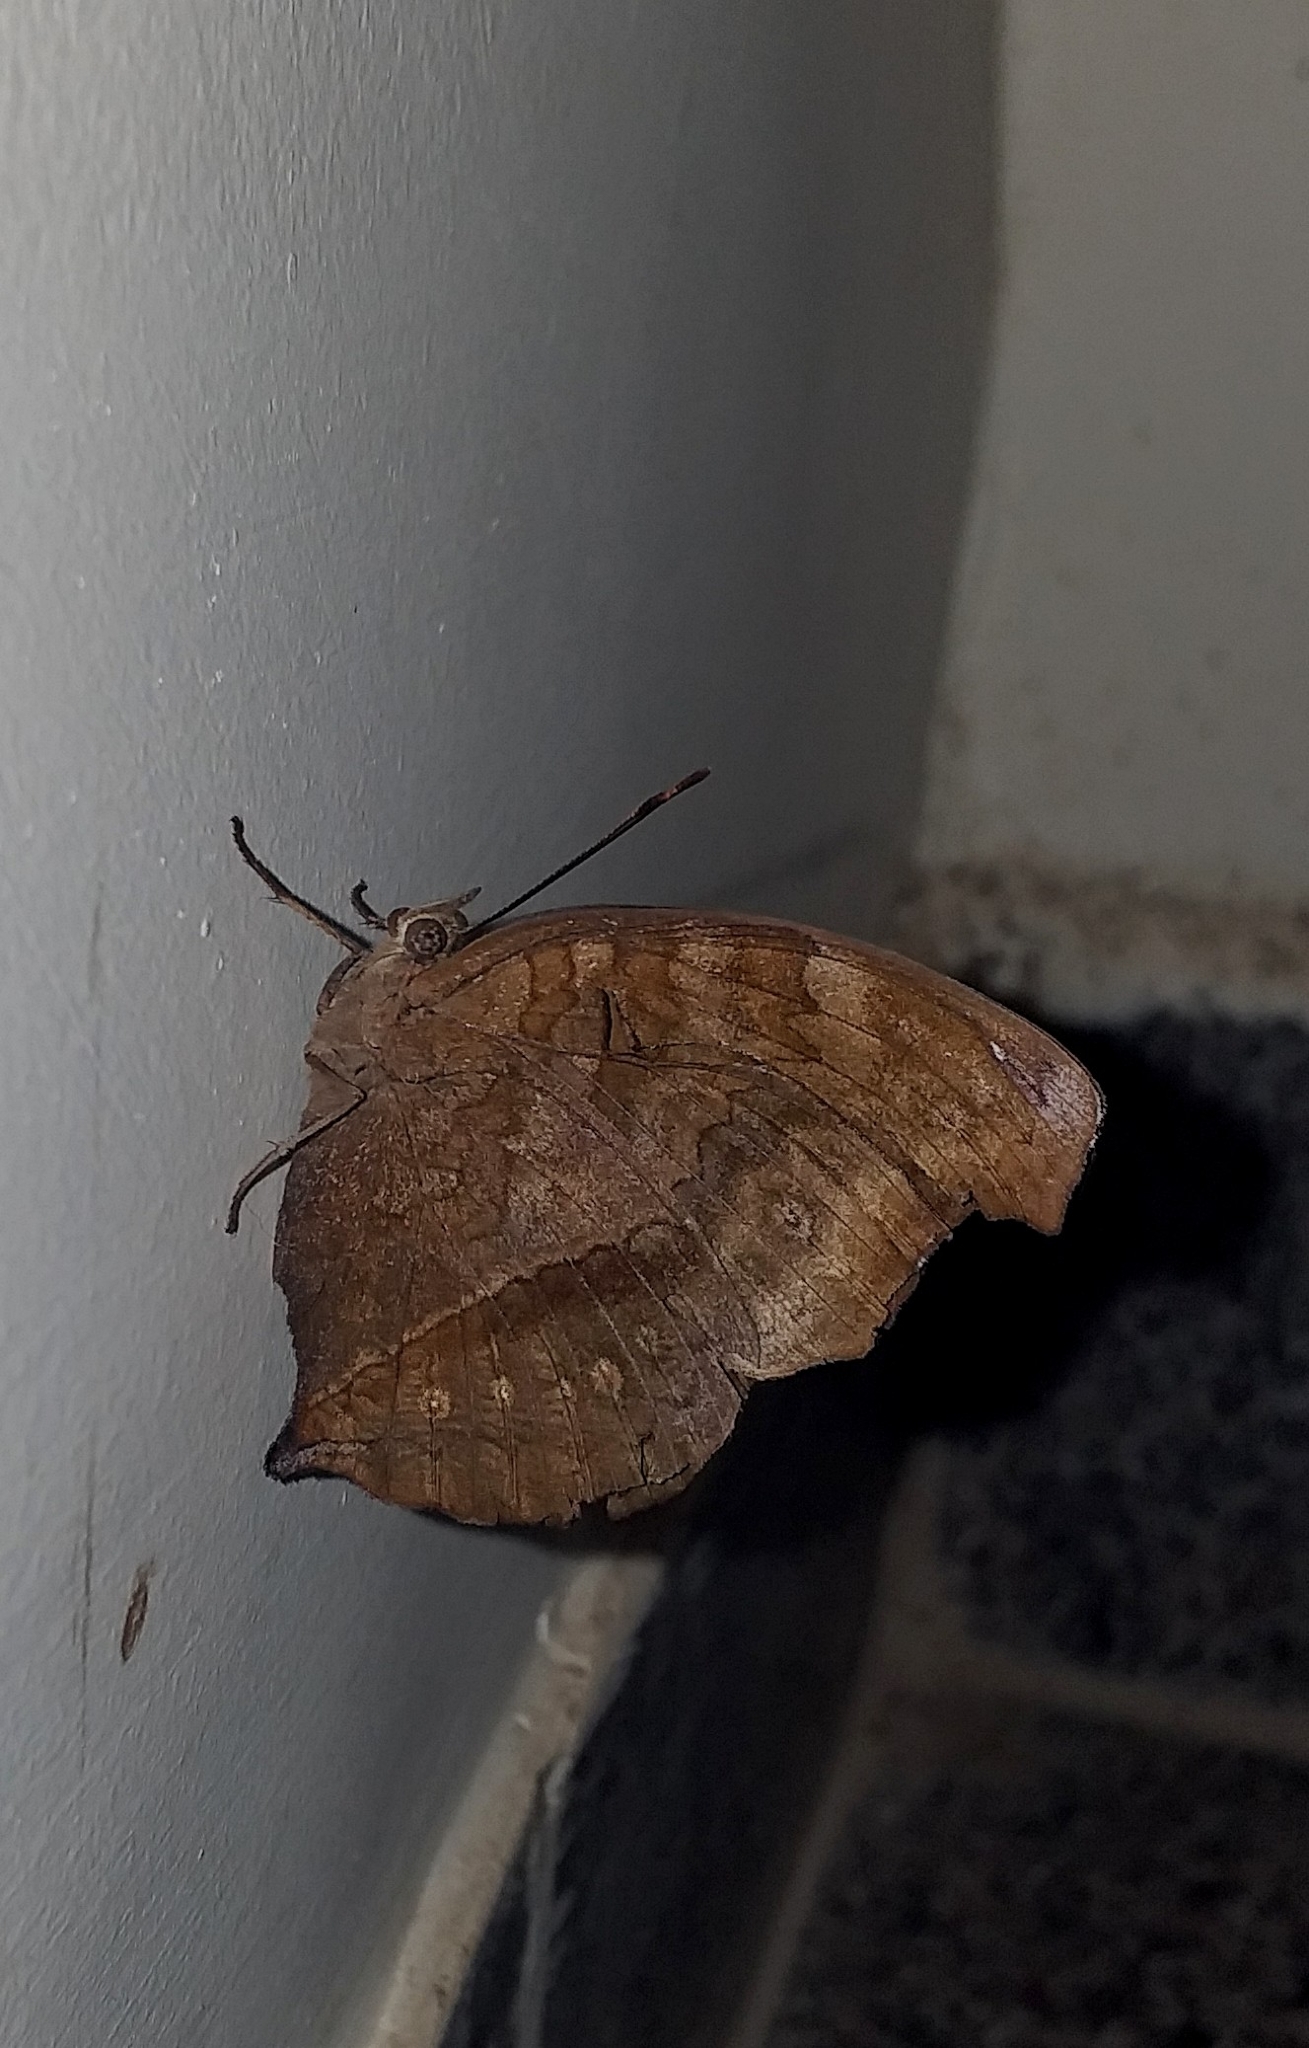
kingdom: Animalia
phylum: Arthropoda
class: Insecta
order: Lepidoptera
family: Nymphalidae
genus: Junonia
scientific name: Junonia iphita
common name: Chocolate pansy
